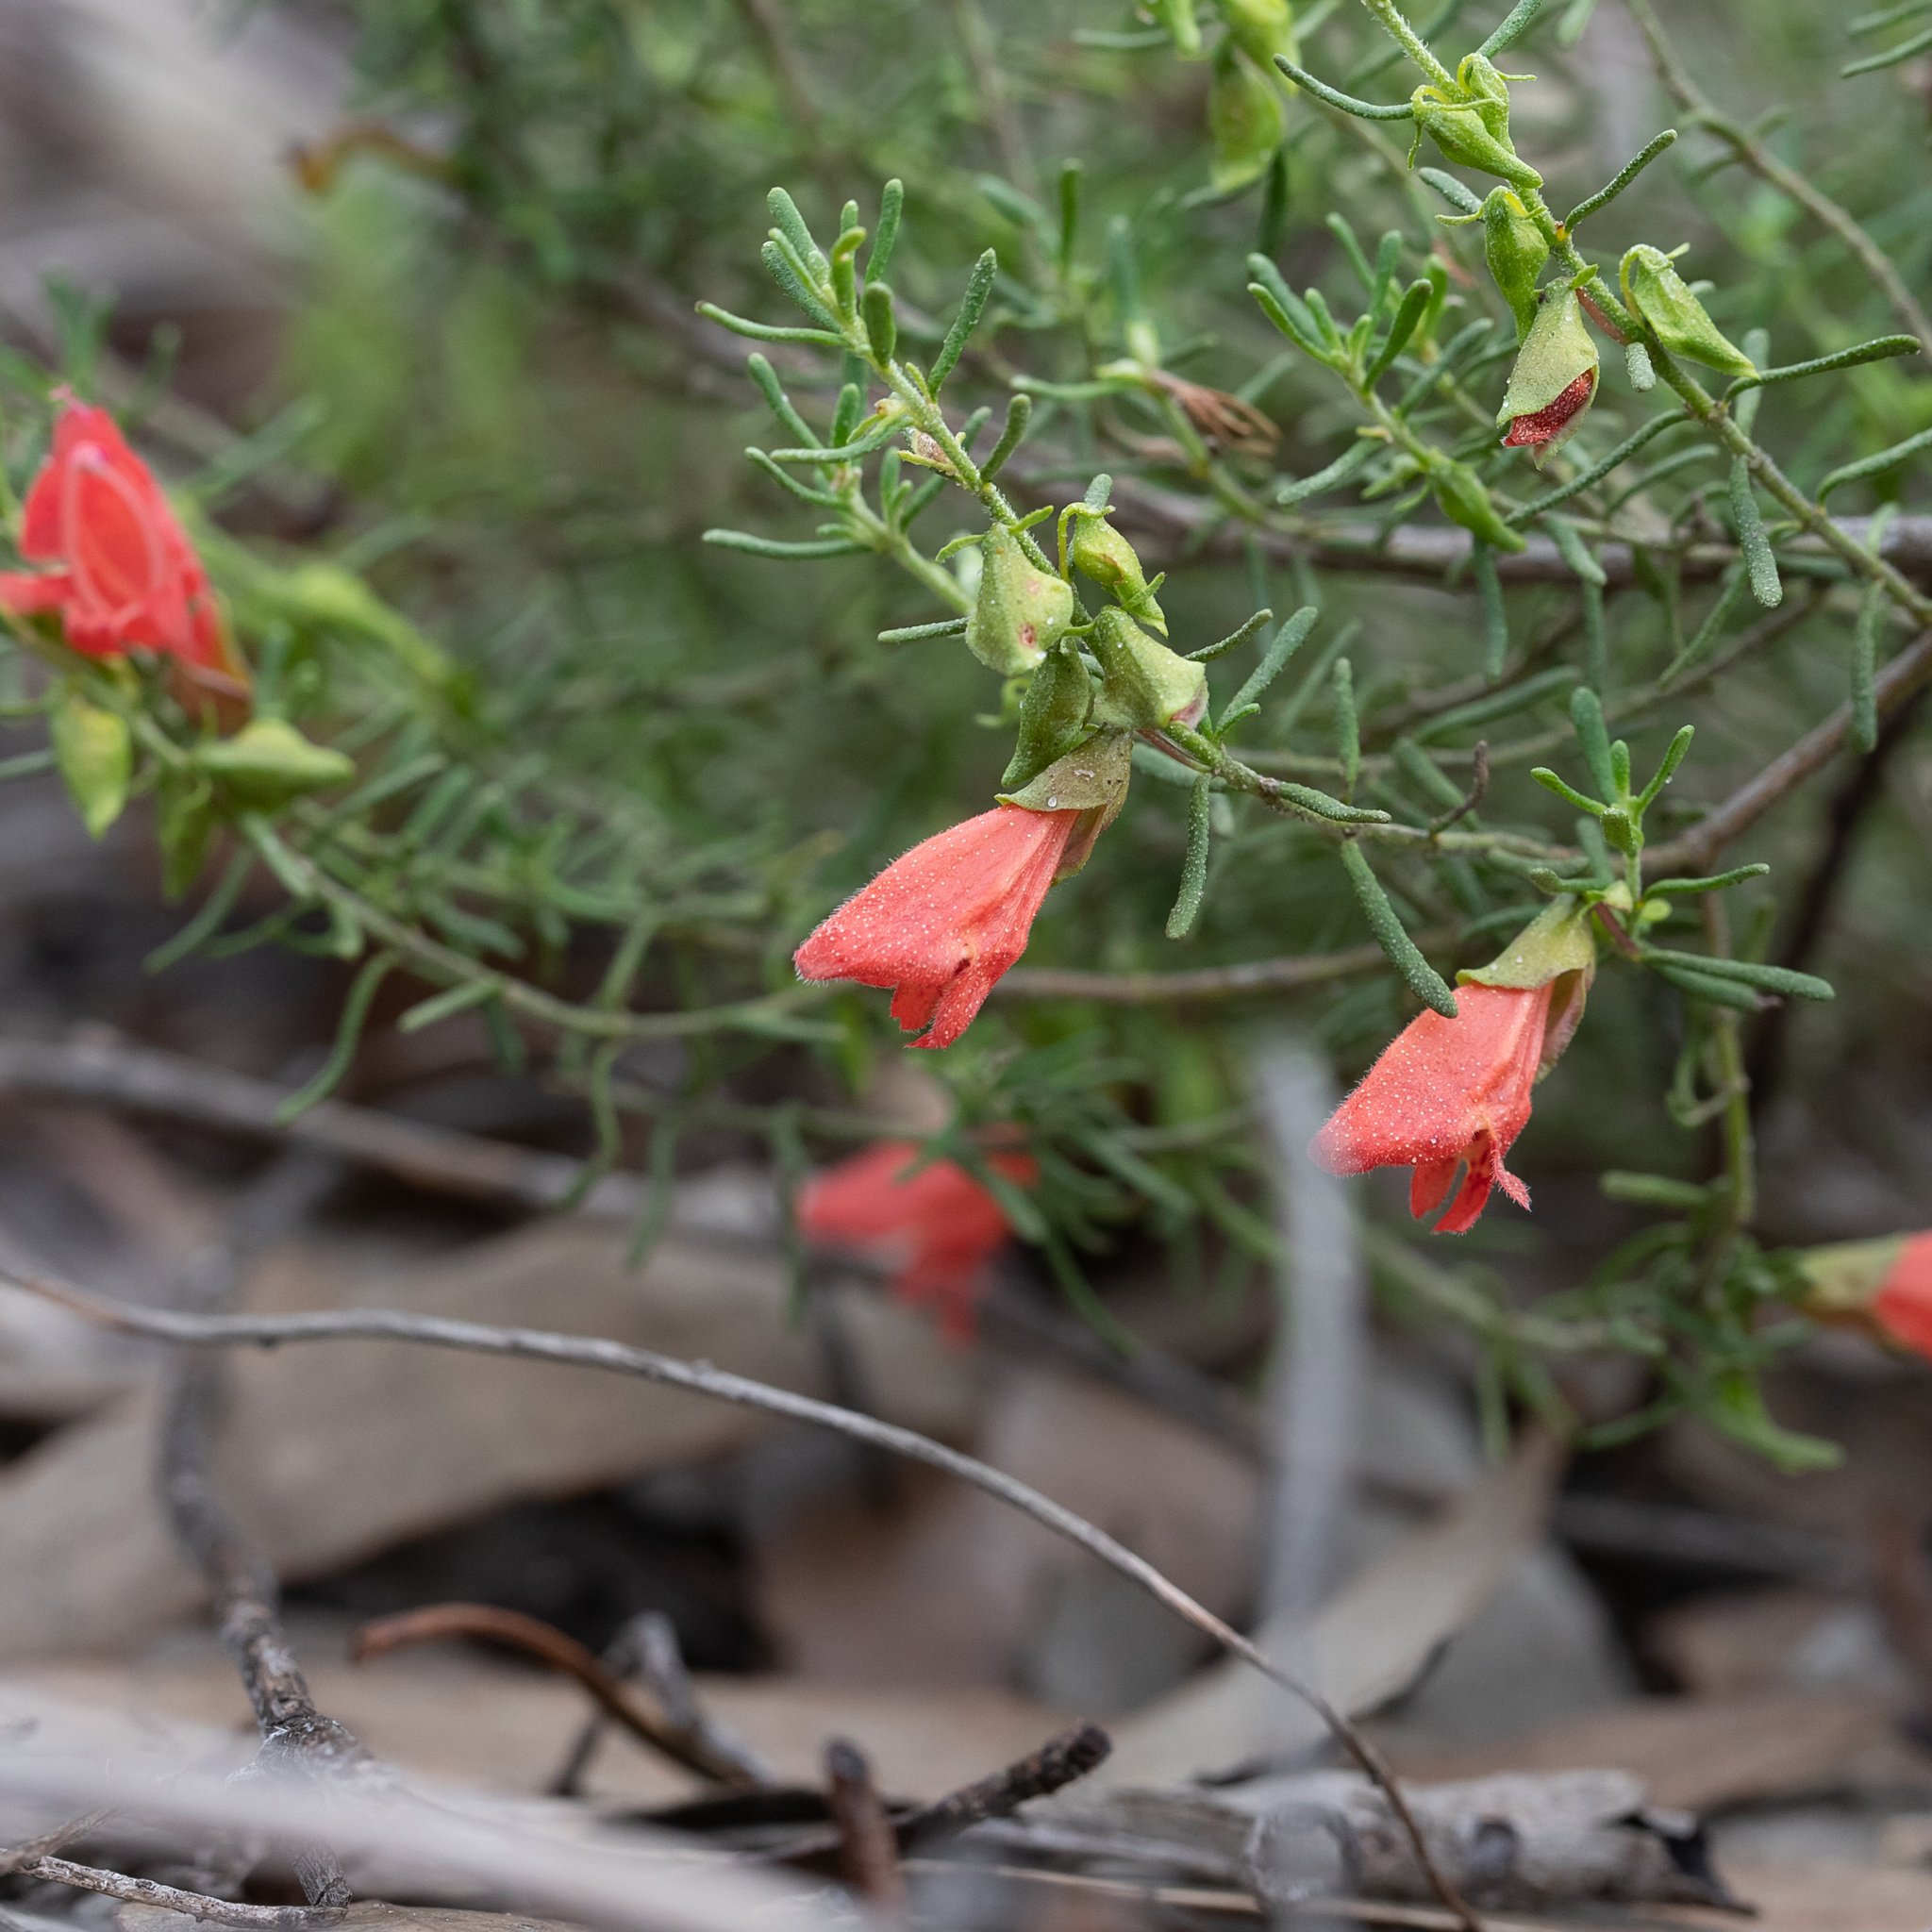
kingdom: Plantae
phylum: Tracheophyta
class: Magnoliopsida
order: Lamiales
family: Lamiaceae
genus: Prostanthera
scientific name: Prostanthera aspalathoides
